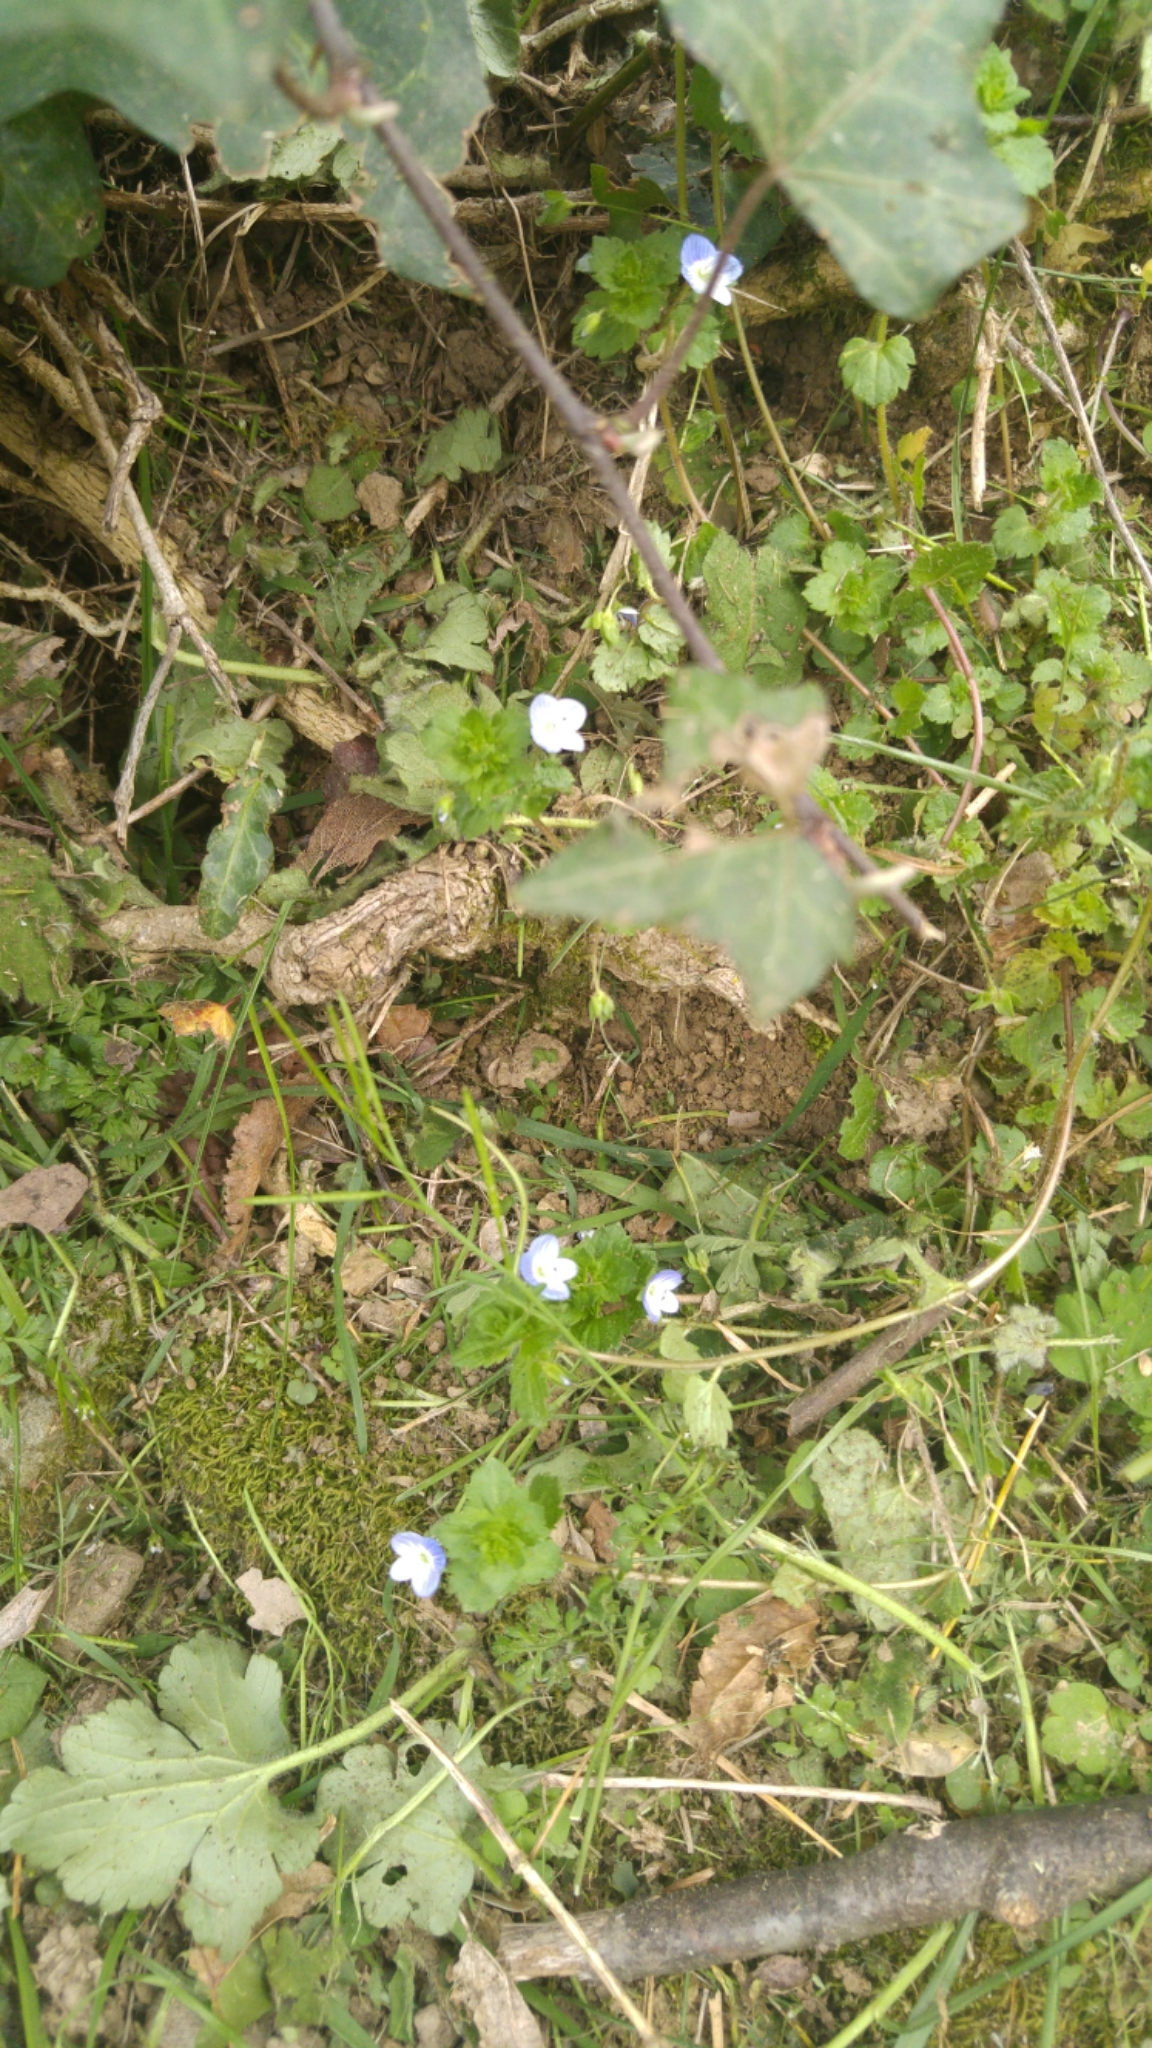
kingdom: Plantae
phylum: Tracheophyta
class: Magnoliopsida
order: Lamiales
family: Plantaginaceae
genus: Veronica
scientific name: Veronica persica
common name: Common field-speedwell
